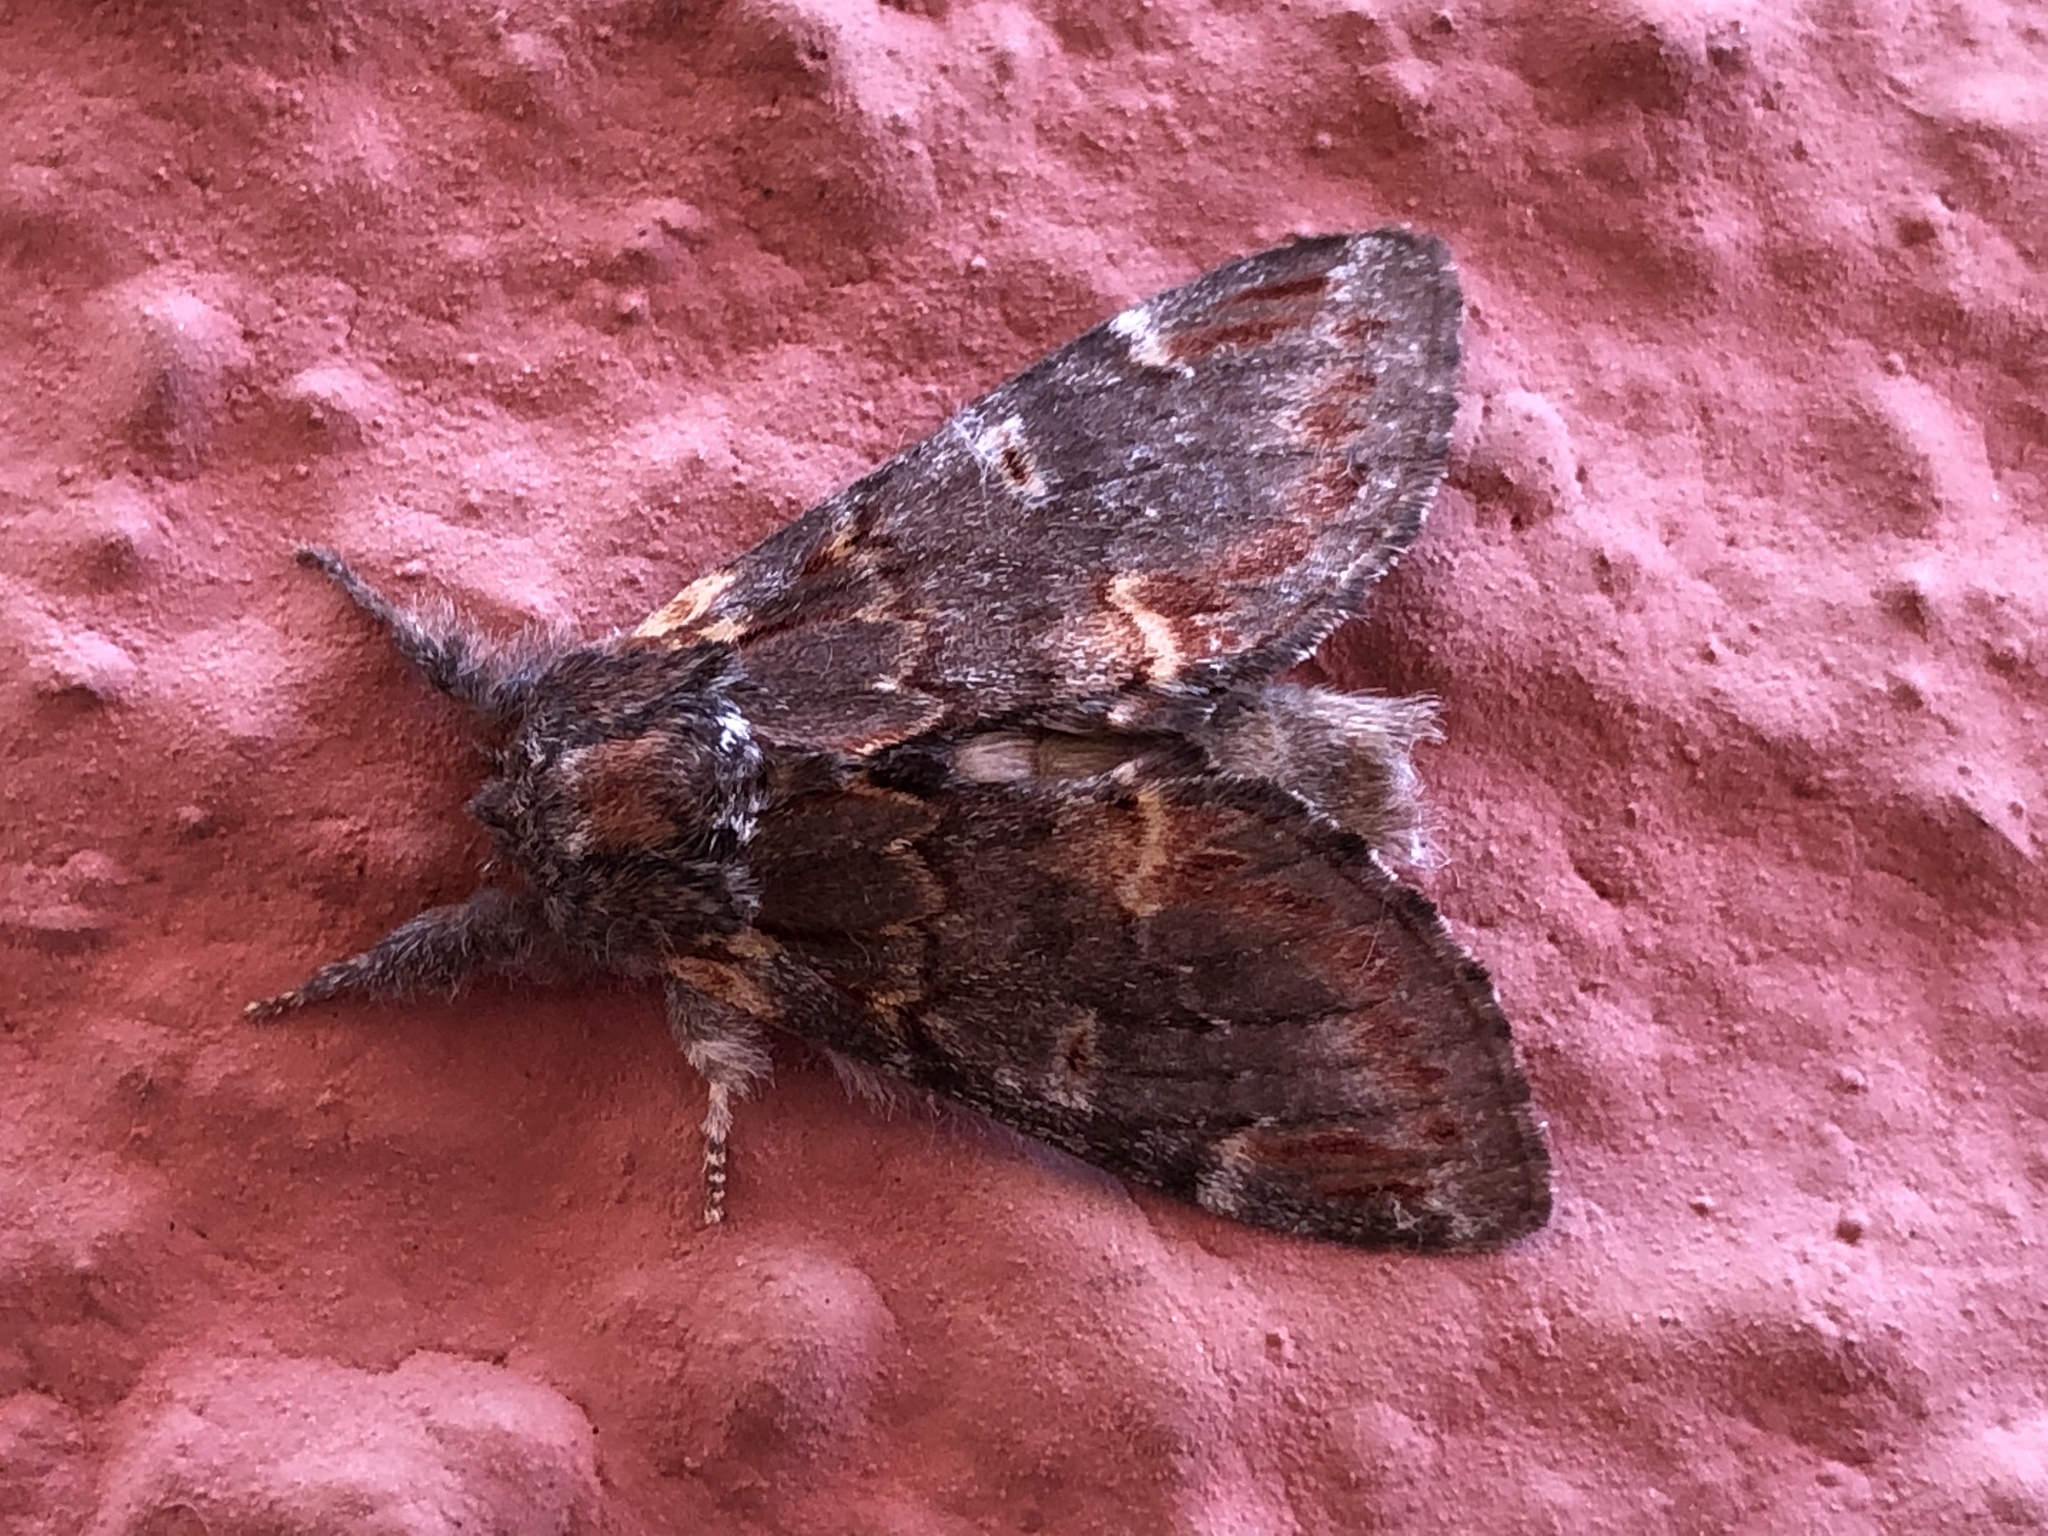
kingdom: Animalia
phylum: Arthropoda
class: Insecta
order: Lepidoptera
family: Notodontidae
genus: Notodonta
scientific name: Notodonta dromedarius
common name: Iron prominent
